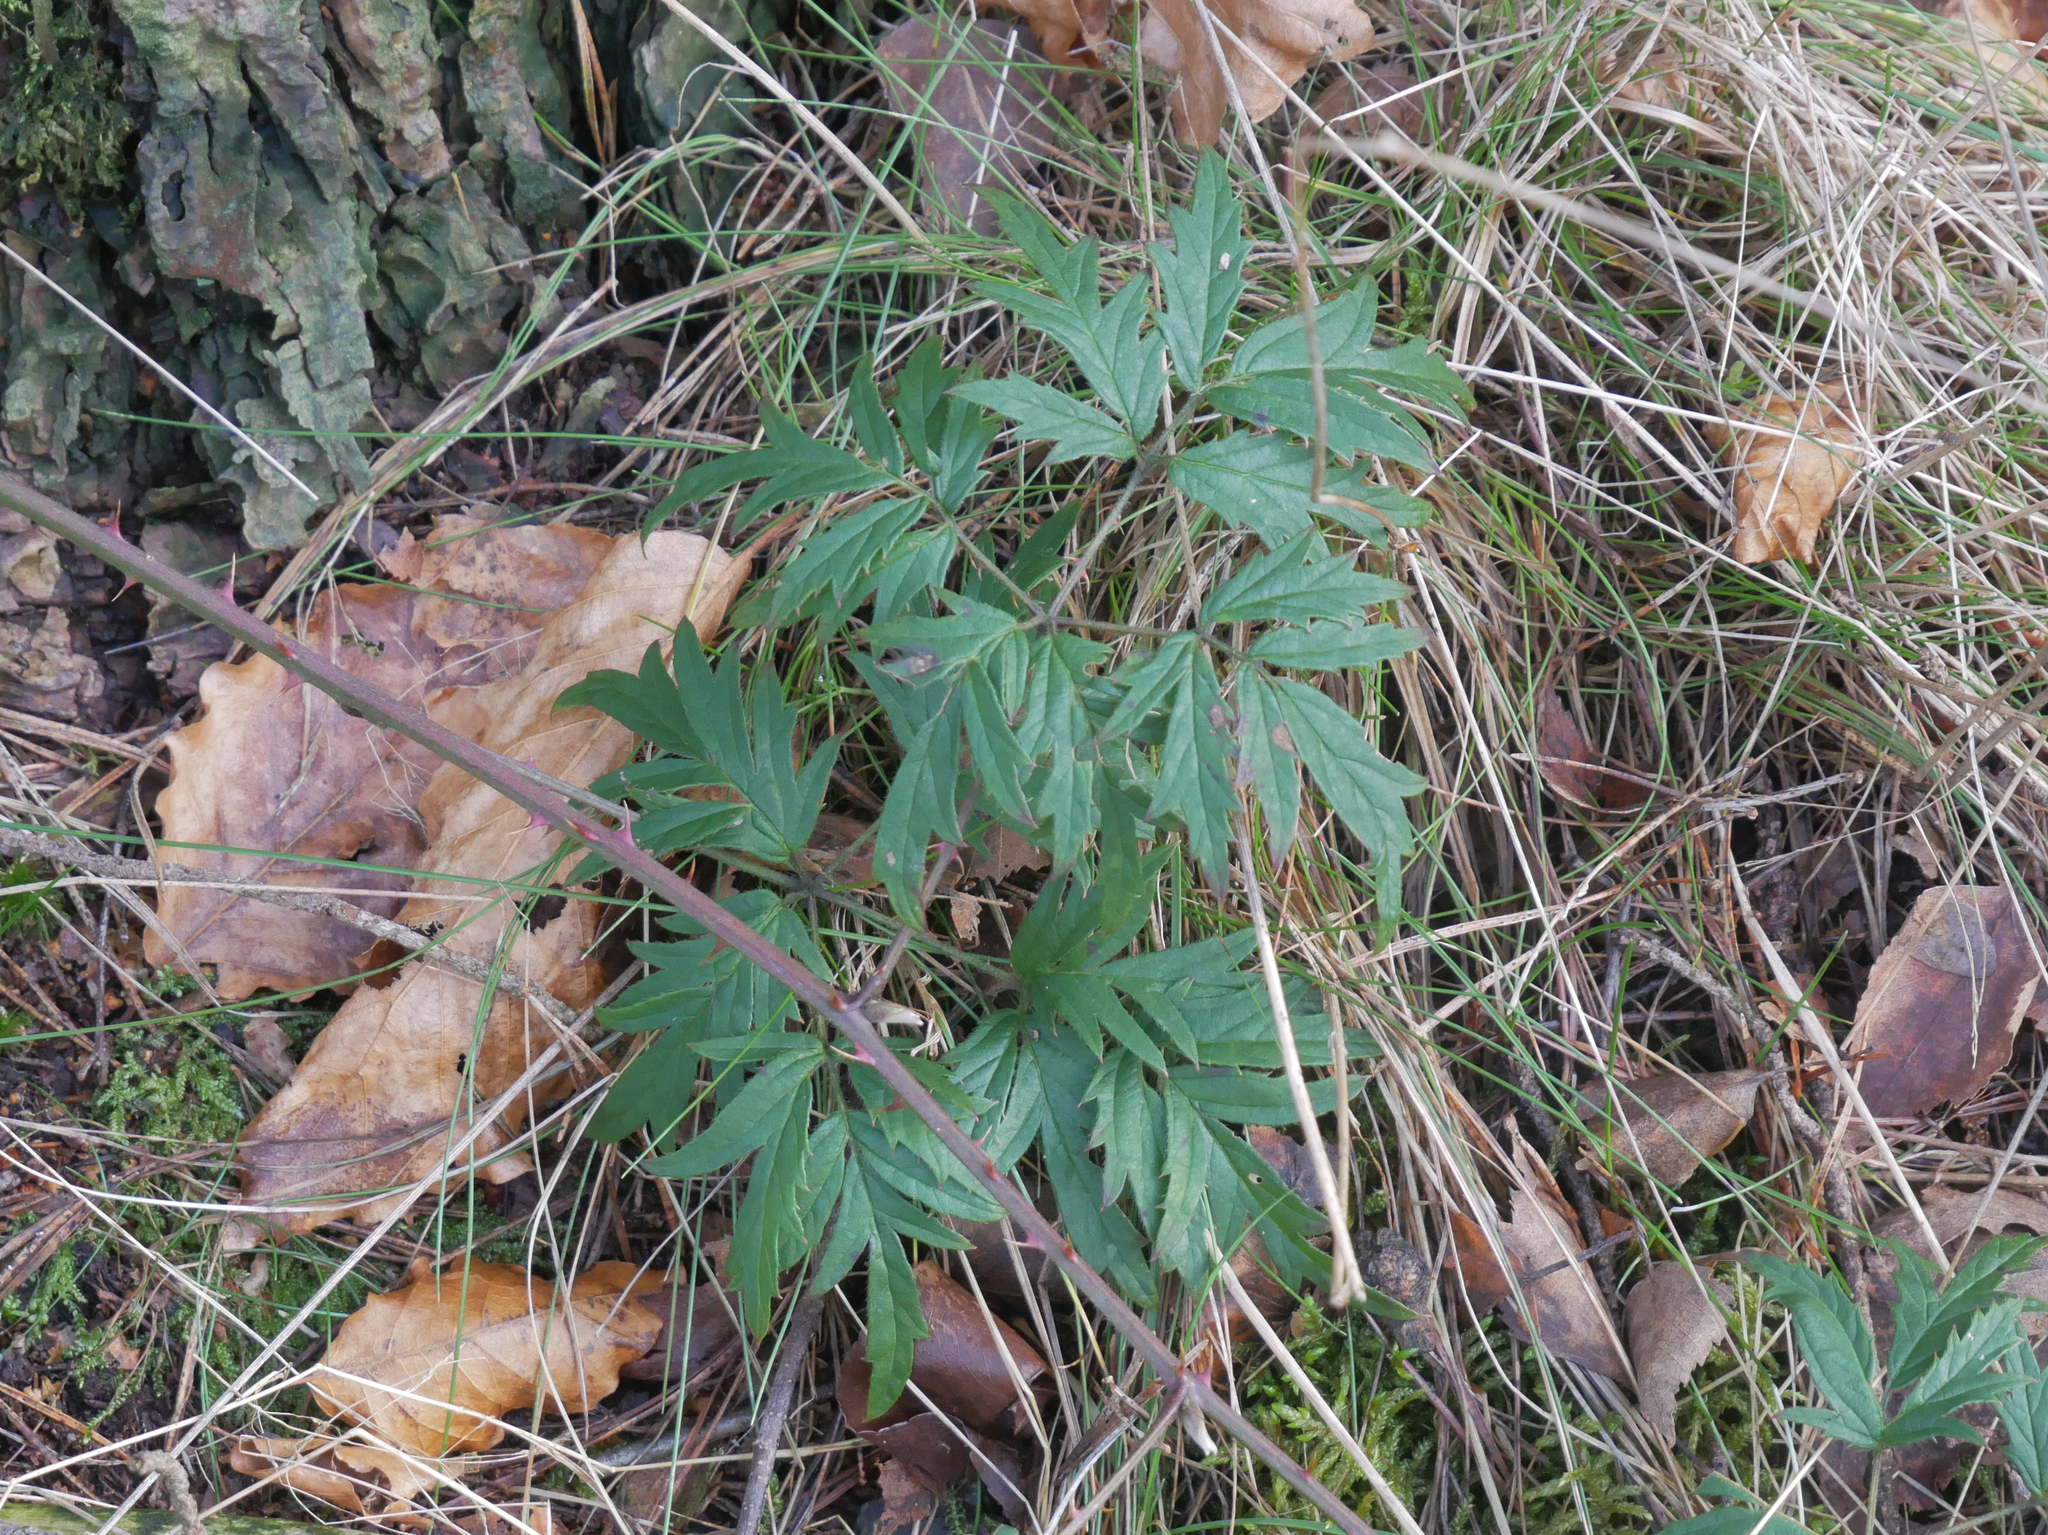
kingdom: Plantae
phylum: Tracheophyta
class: Magnoliopsida
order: Rosales
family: Rosaceae
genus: Rubus
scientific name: Rubus laciniatus
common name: Evergreen blackberry
